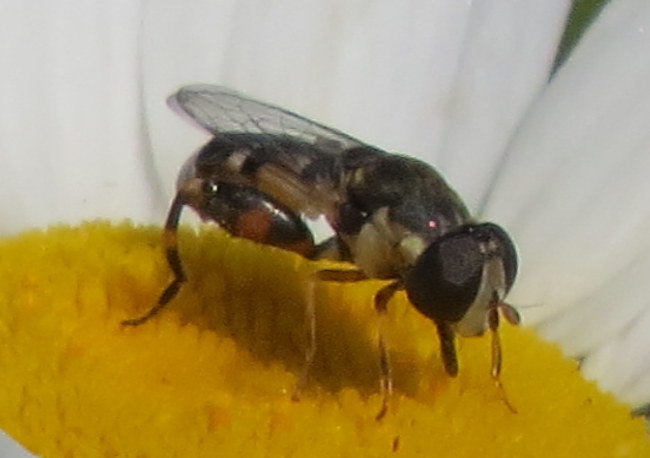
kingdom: Animalia
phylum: Arthropoda
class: Insecta
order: Diptera
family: Syrphidae
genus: Syritta
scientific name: Syritta pipiens
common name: Hover fly
